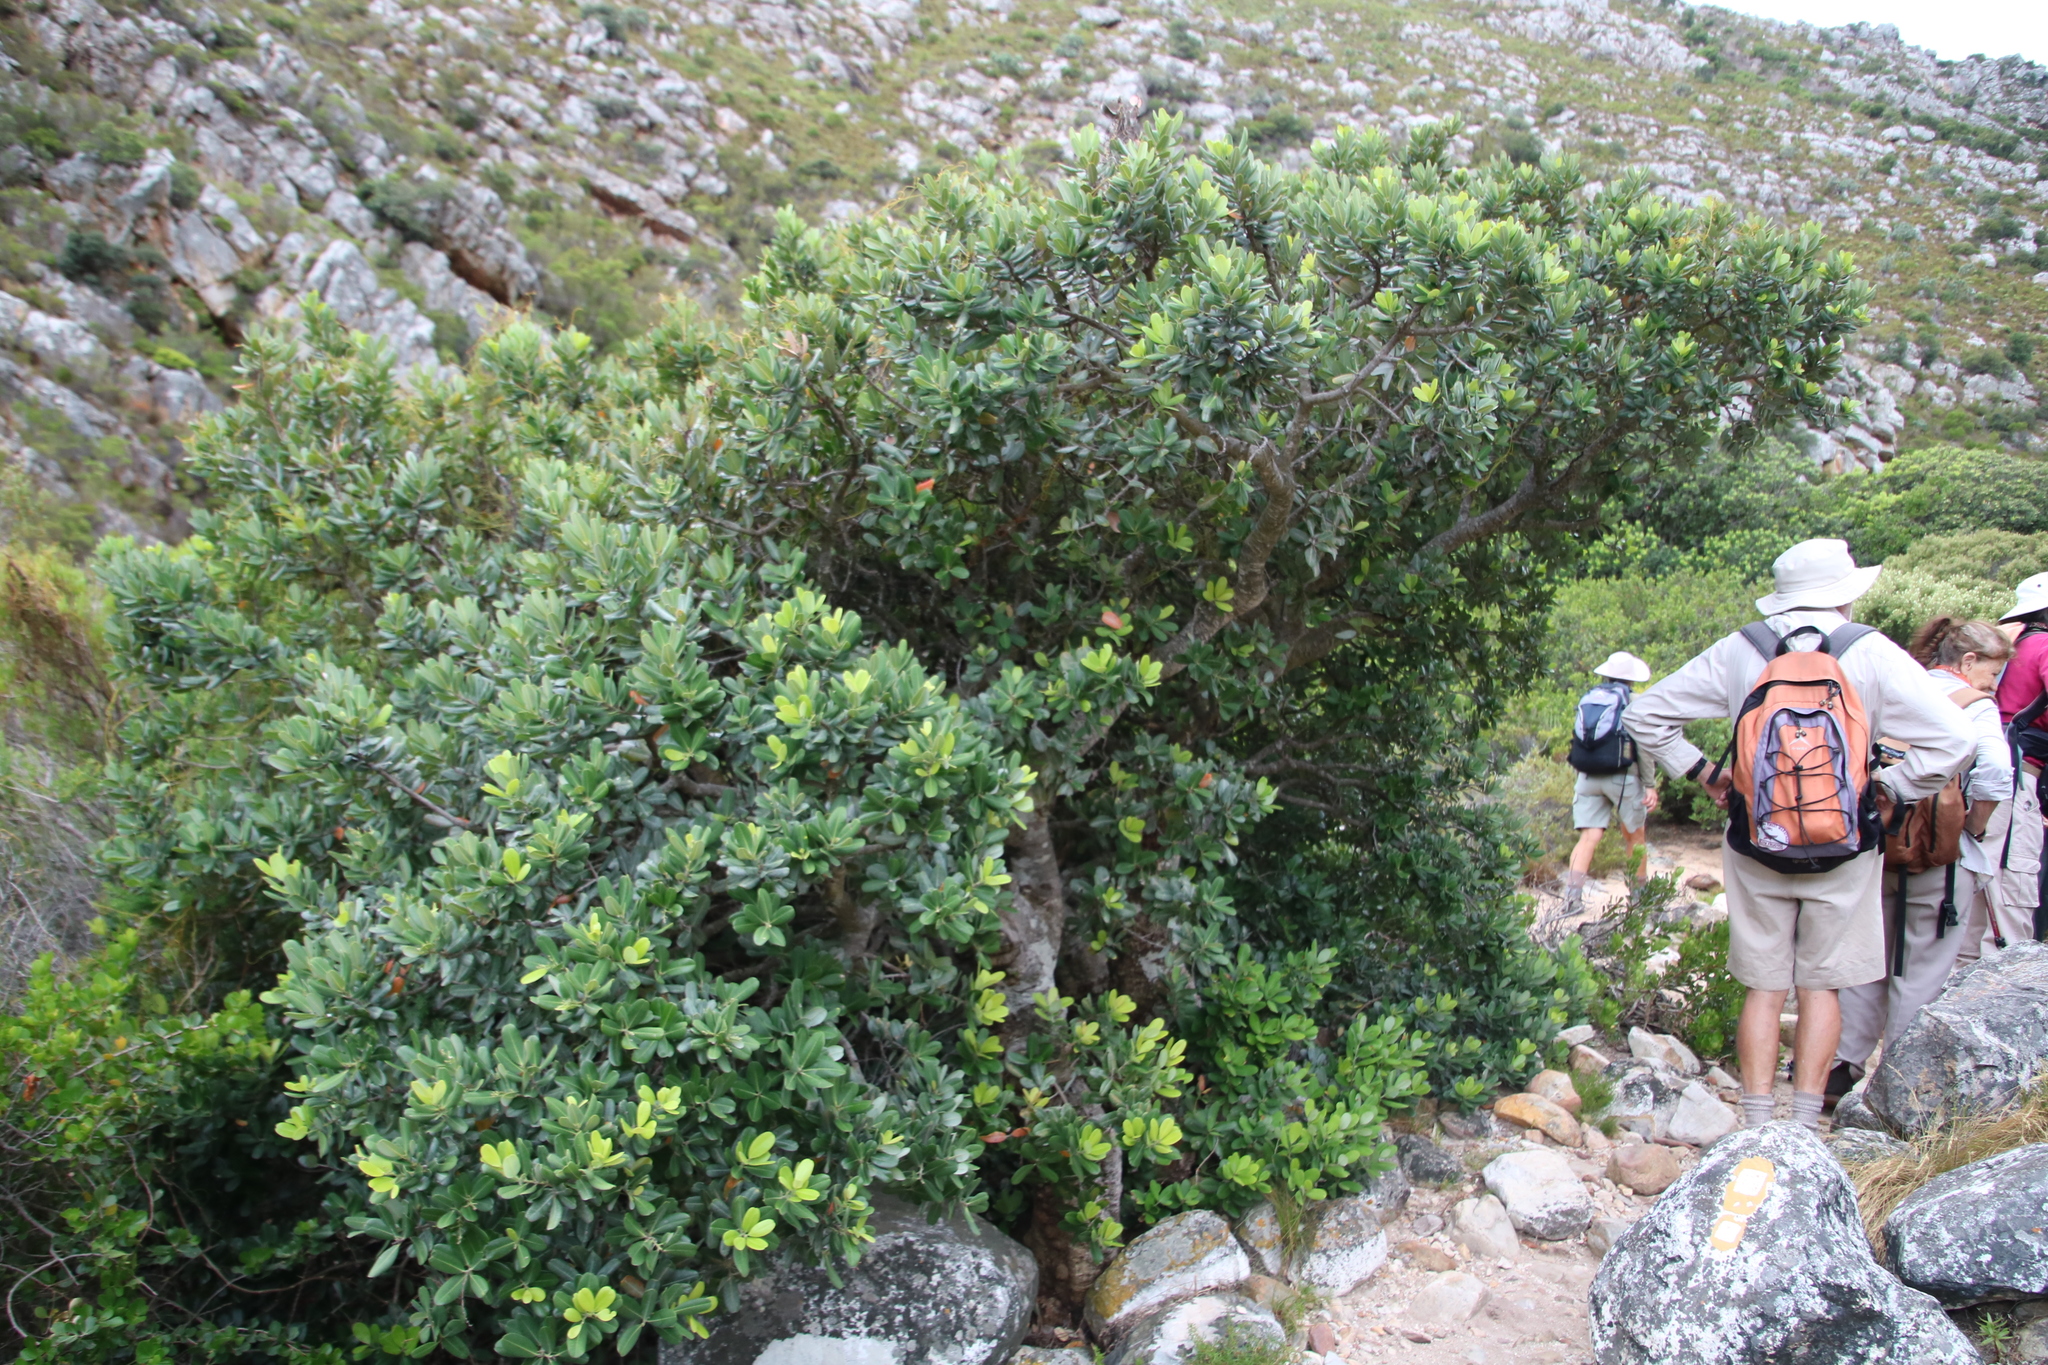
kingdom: Plantae
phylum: Tracheophyta
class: Magnoliopsida
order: Sapindales
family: Anacardiaceae
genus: Heeria
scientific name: Heeria argentea
